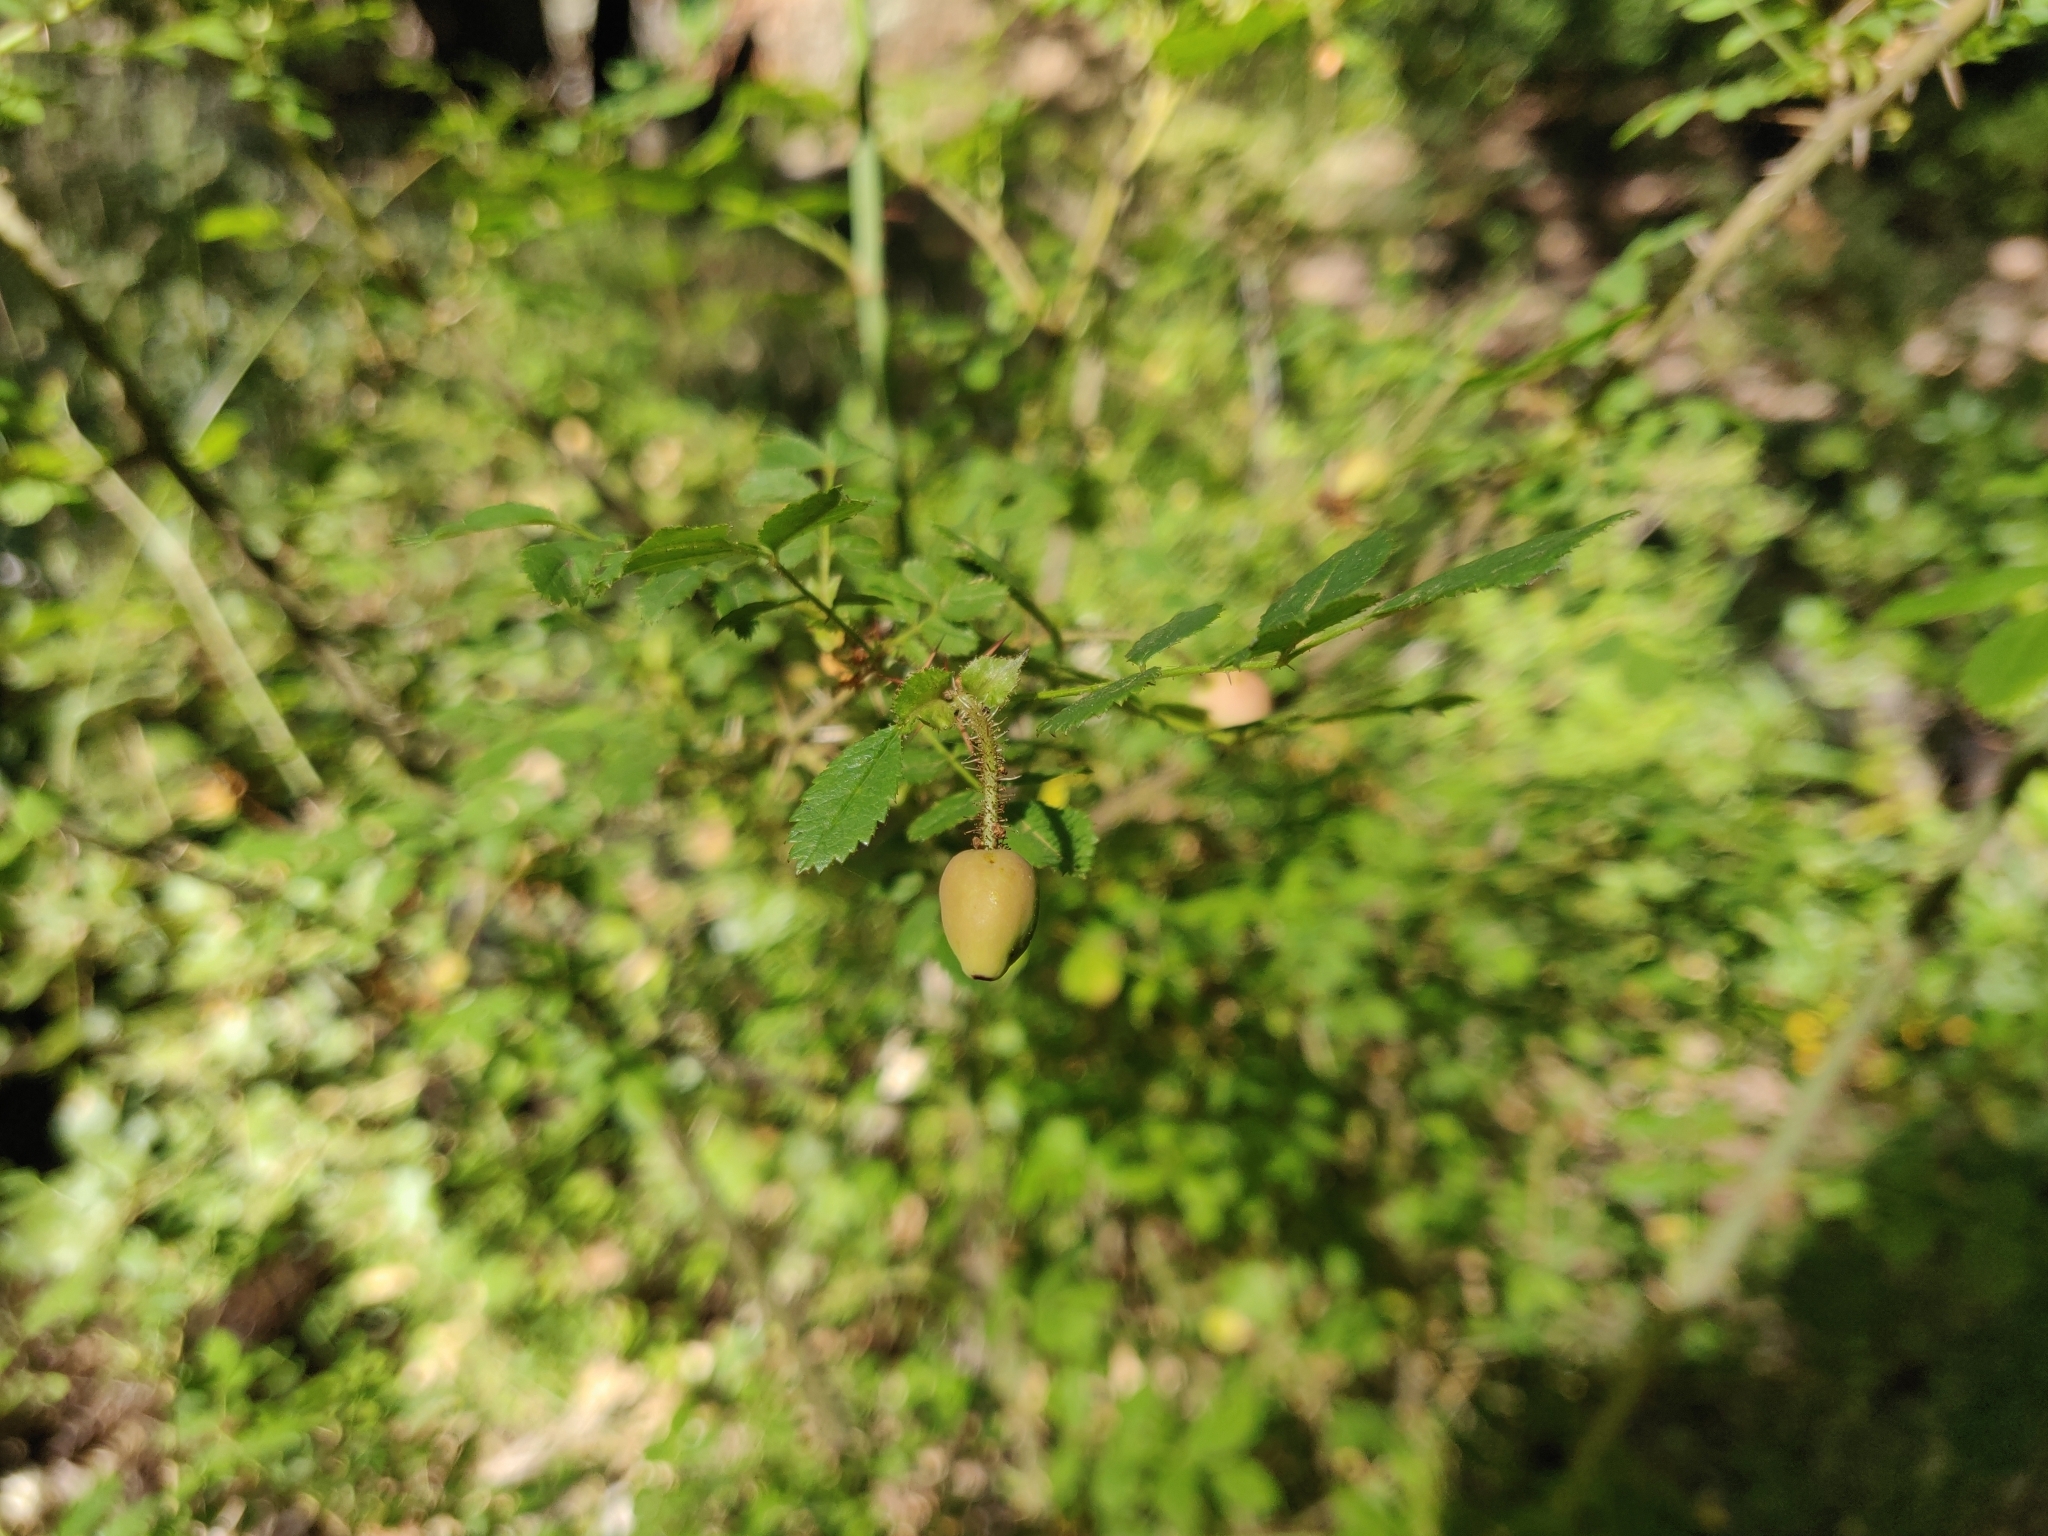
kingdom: Plantae
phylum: Tracheophyta
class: Magnoliopsida
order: Rosales
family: Rosaceae
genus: Rosa
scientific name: Rosa gymnocarpa
